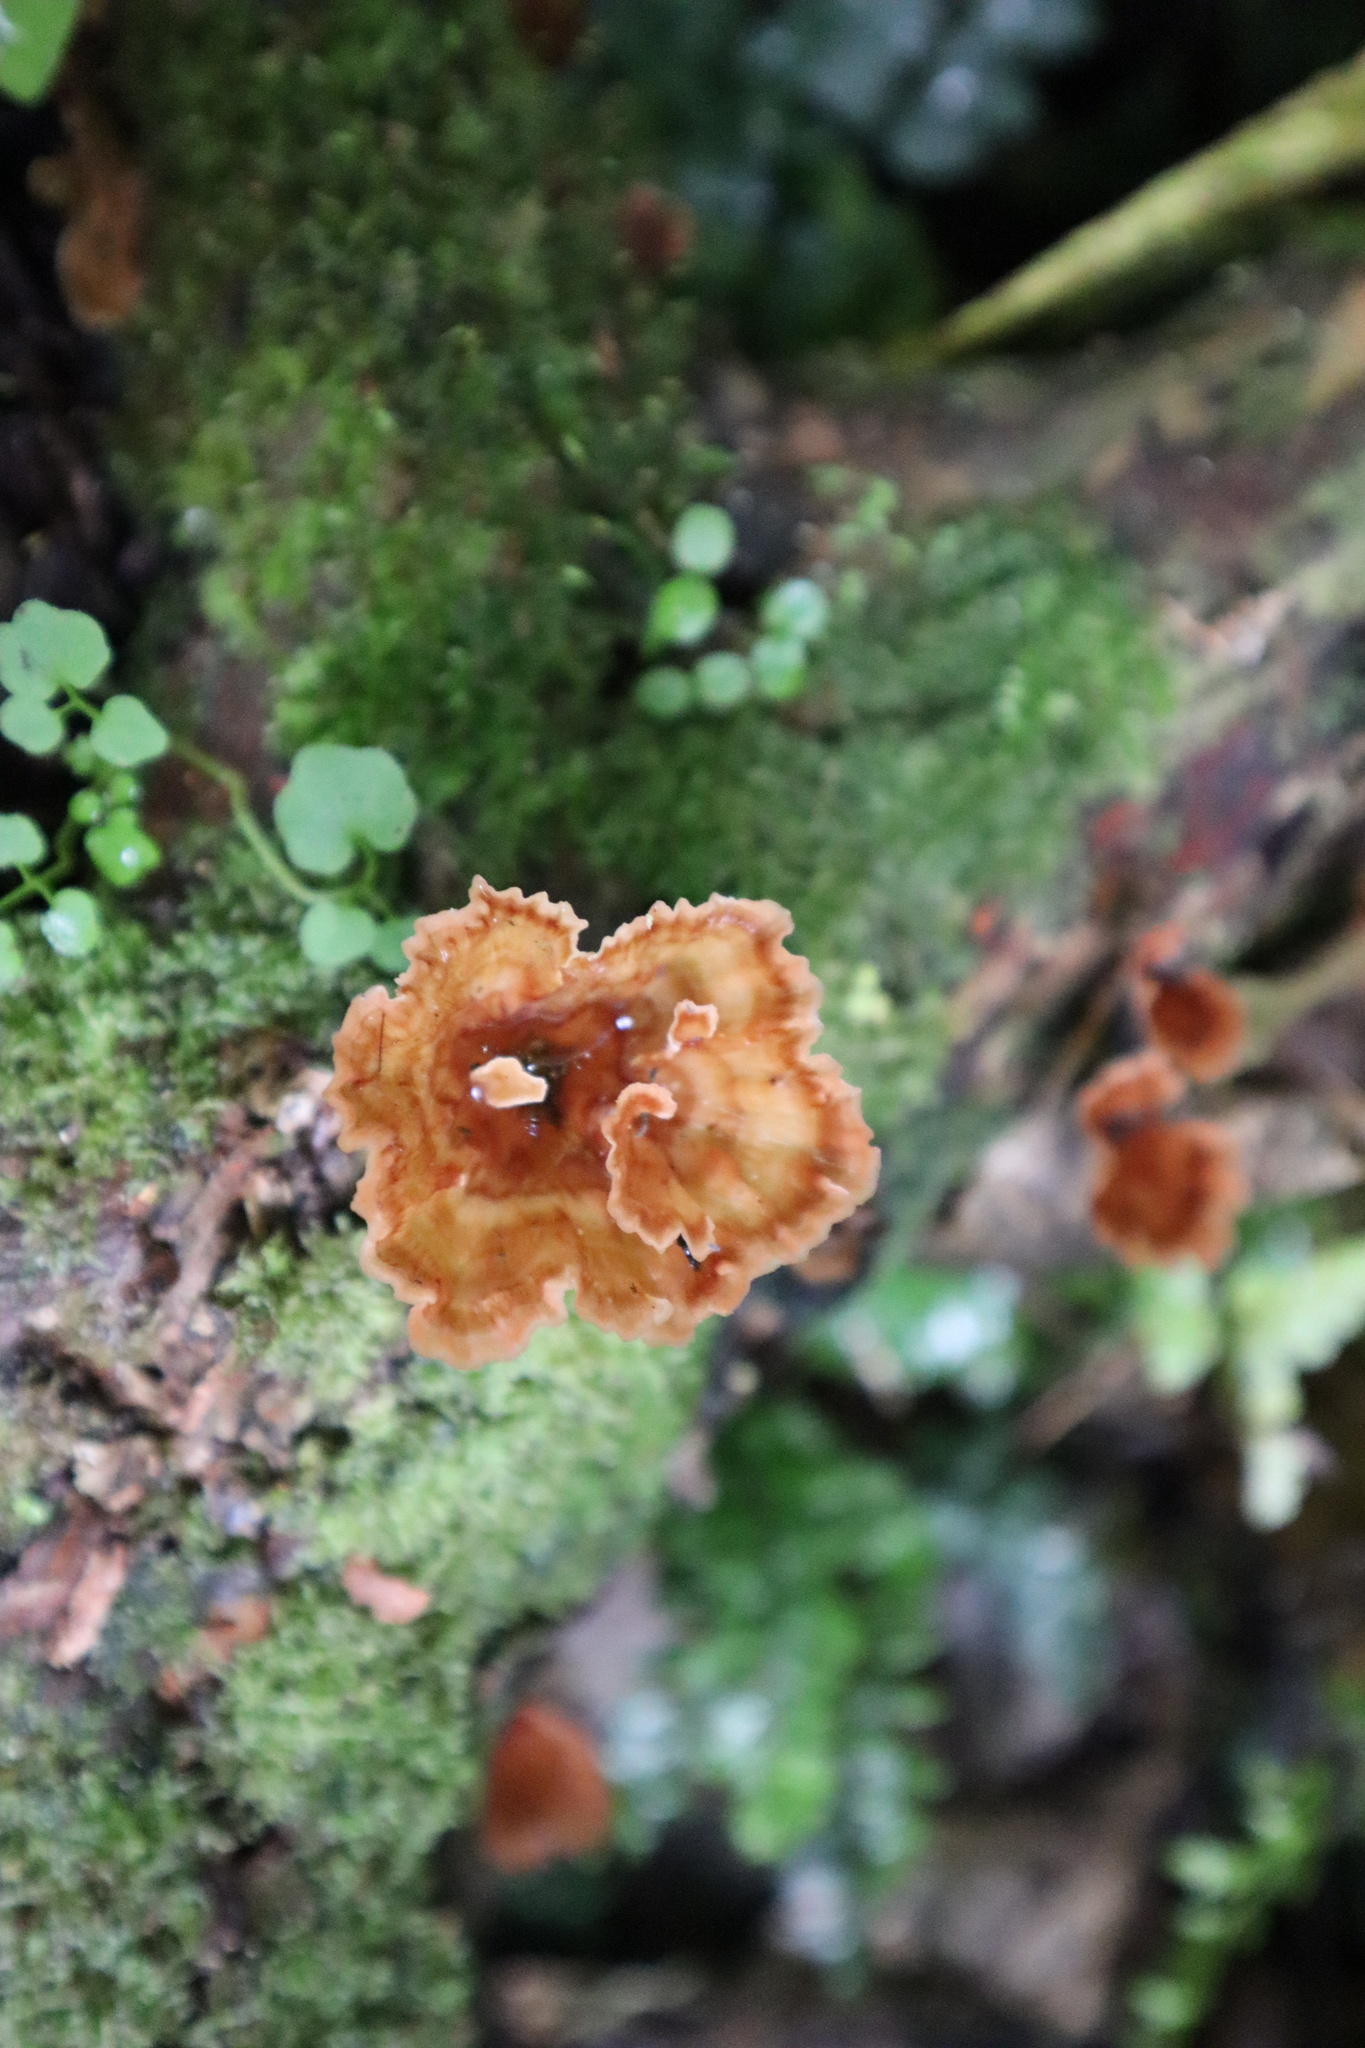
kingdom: Fungi
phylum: Basidiomycota
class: Agaricomycetes
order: Polyporales
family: Podoscyphaceae
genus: Podoscypha
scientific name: Podoscypha petalodes
